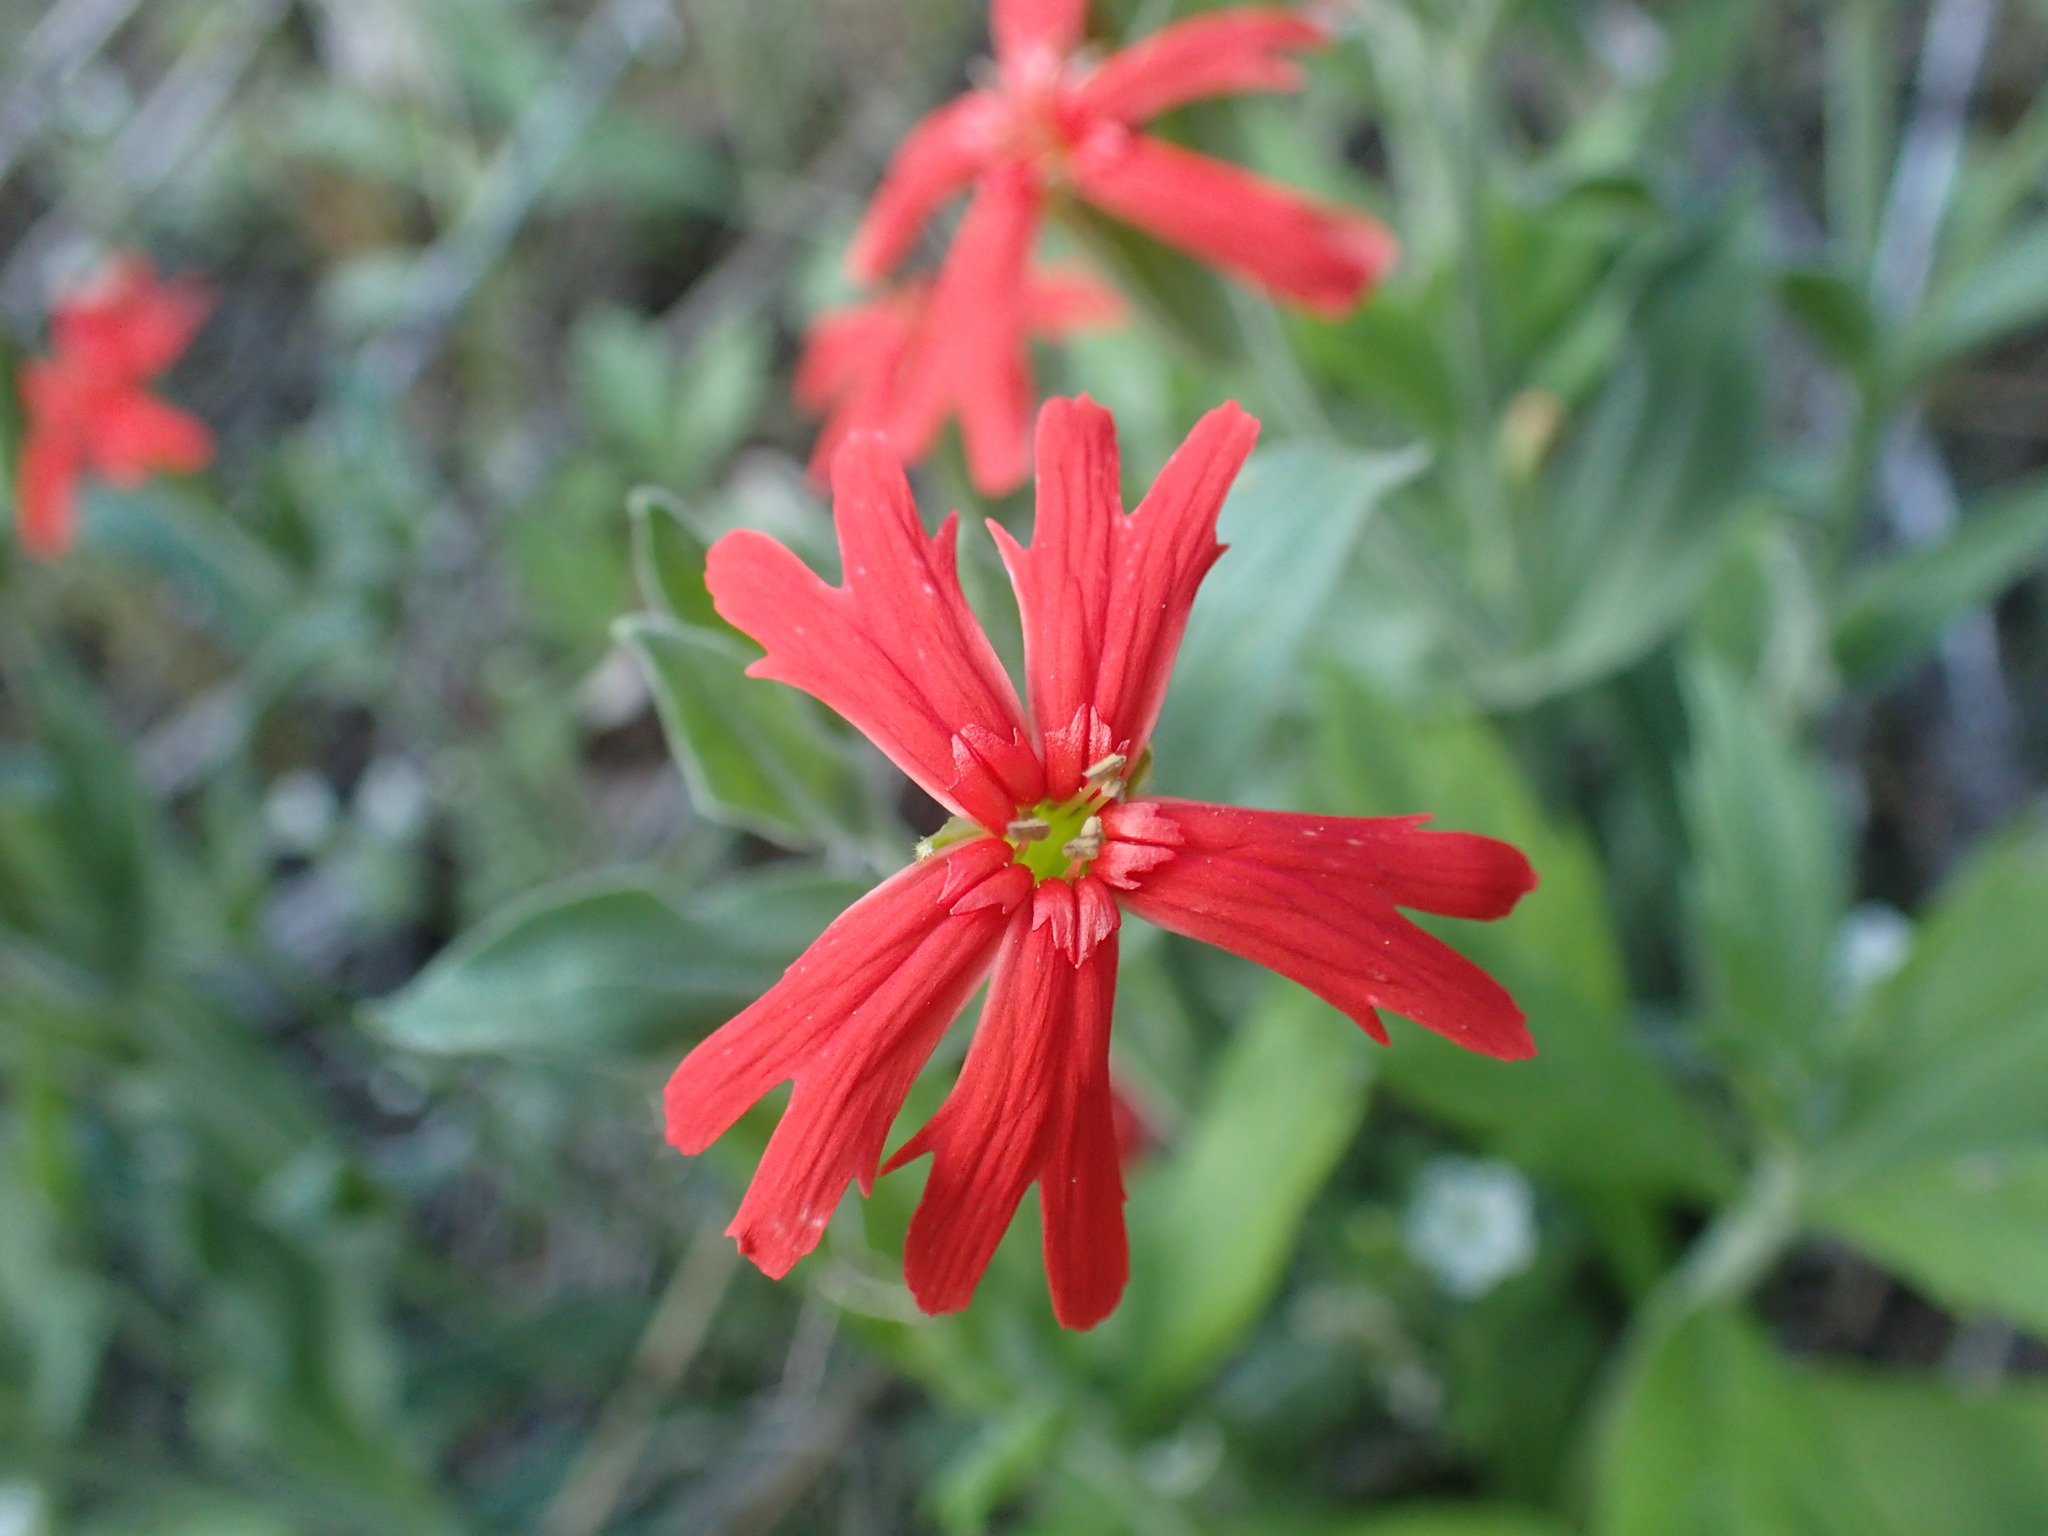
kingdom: Plantae
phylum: Tracheophyta
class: Magnoliopsida
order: Caryophyllales
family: Caryophyllaceae
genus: Silene
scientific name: Silene laciniata
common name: Indian-pink
